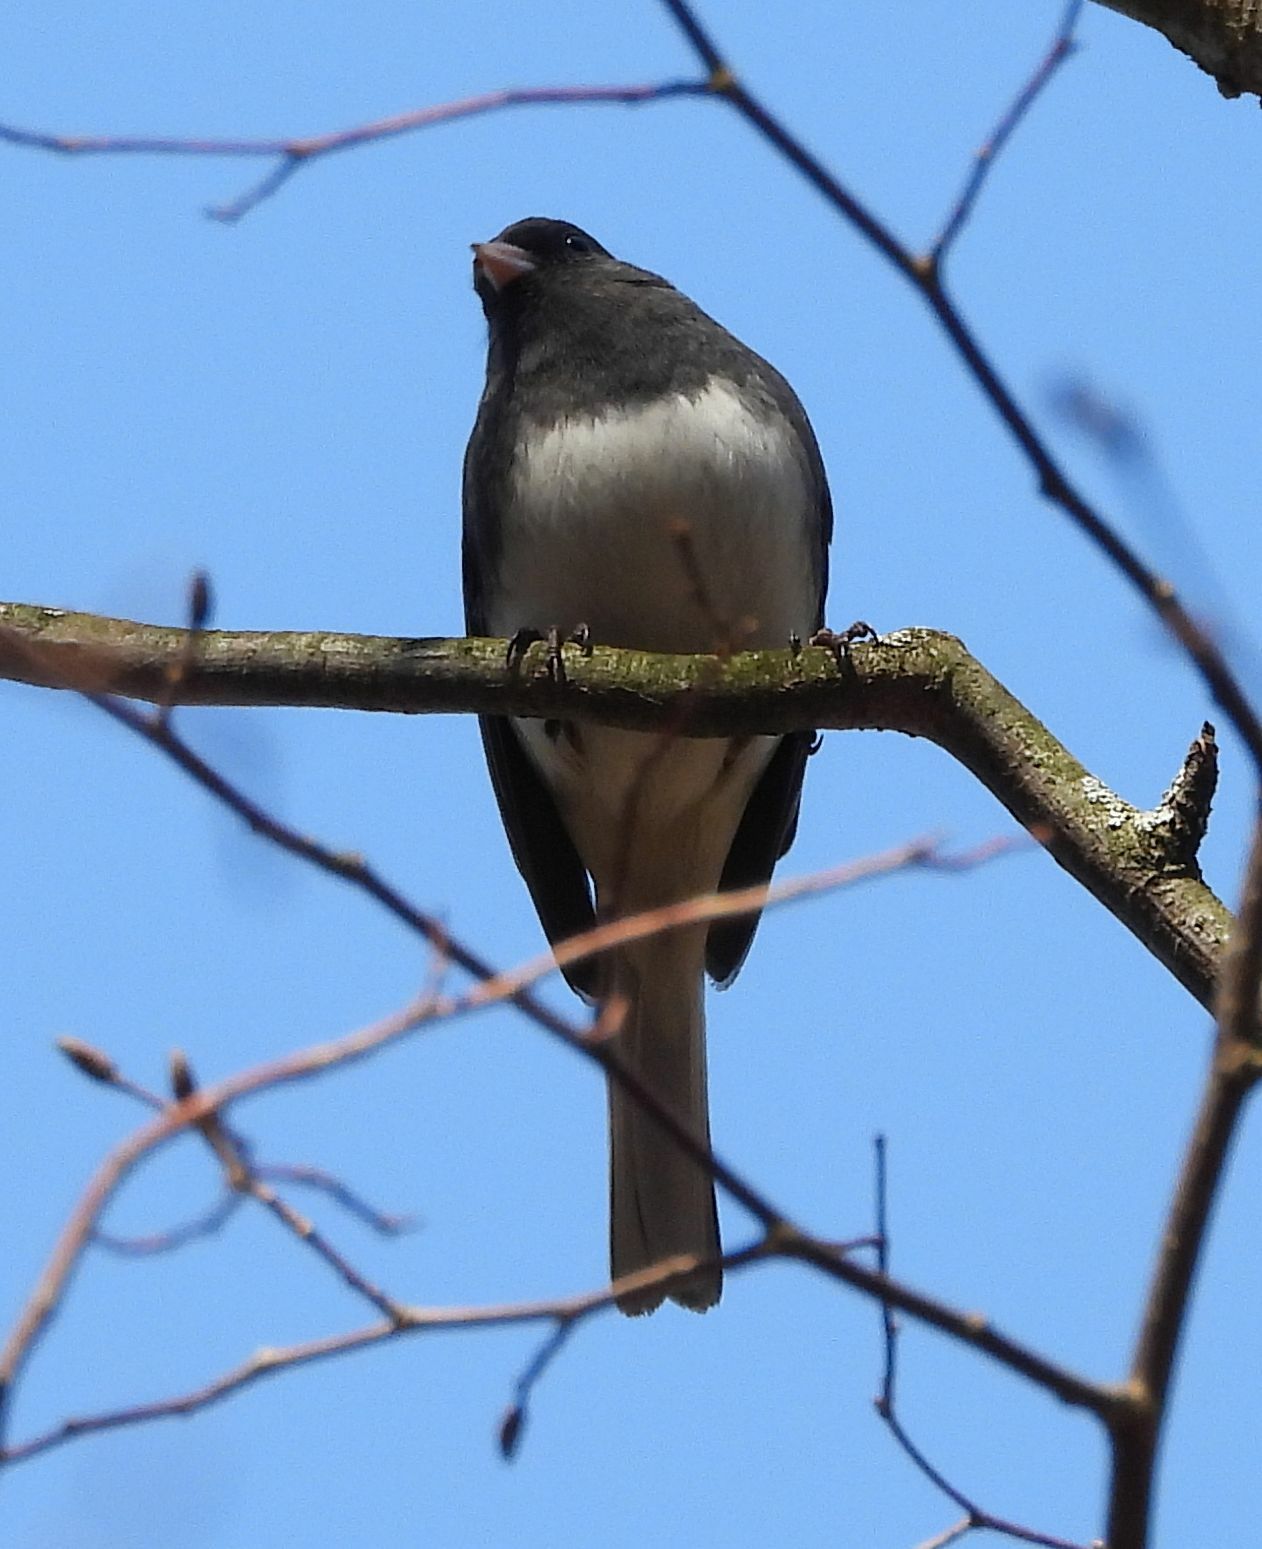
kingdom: Animalia
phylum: Chordata
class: Aves
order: Passeriformes
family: Passerellidae
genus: Junco
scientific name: Junco hyemalis
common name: Dark-eyed junco
